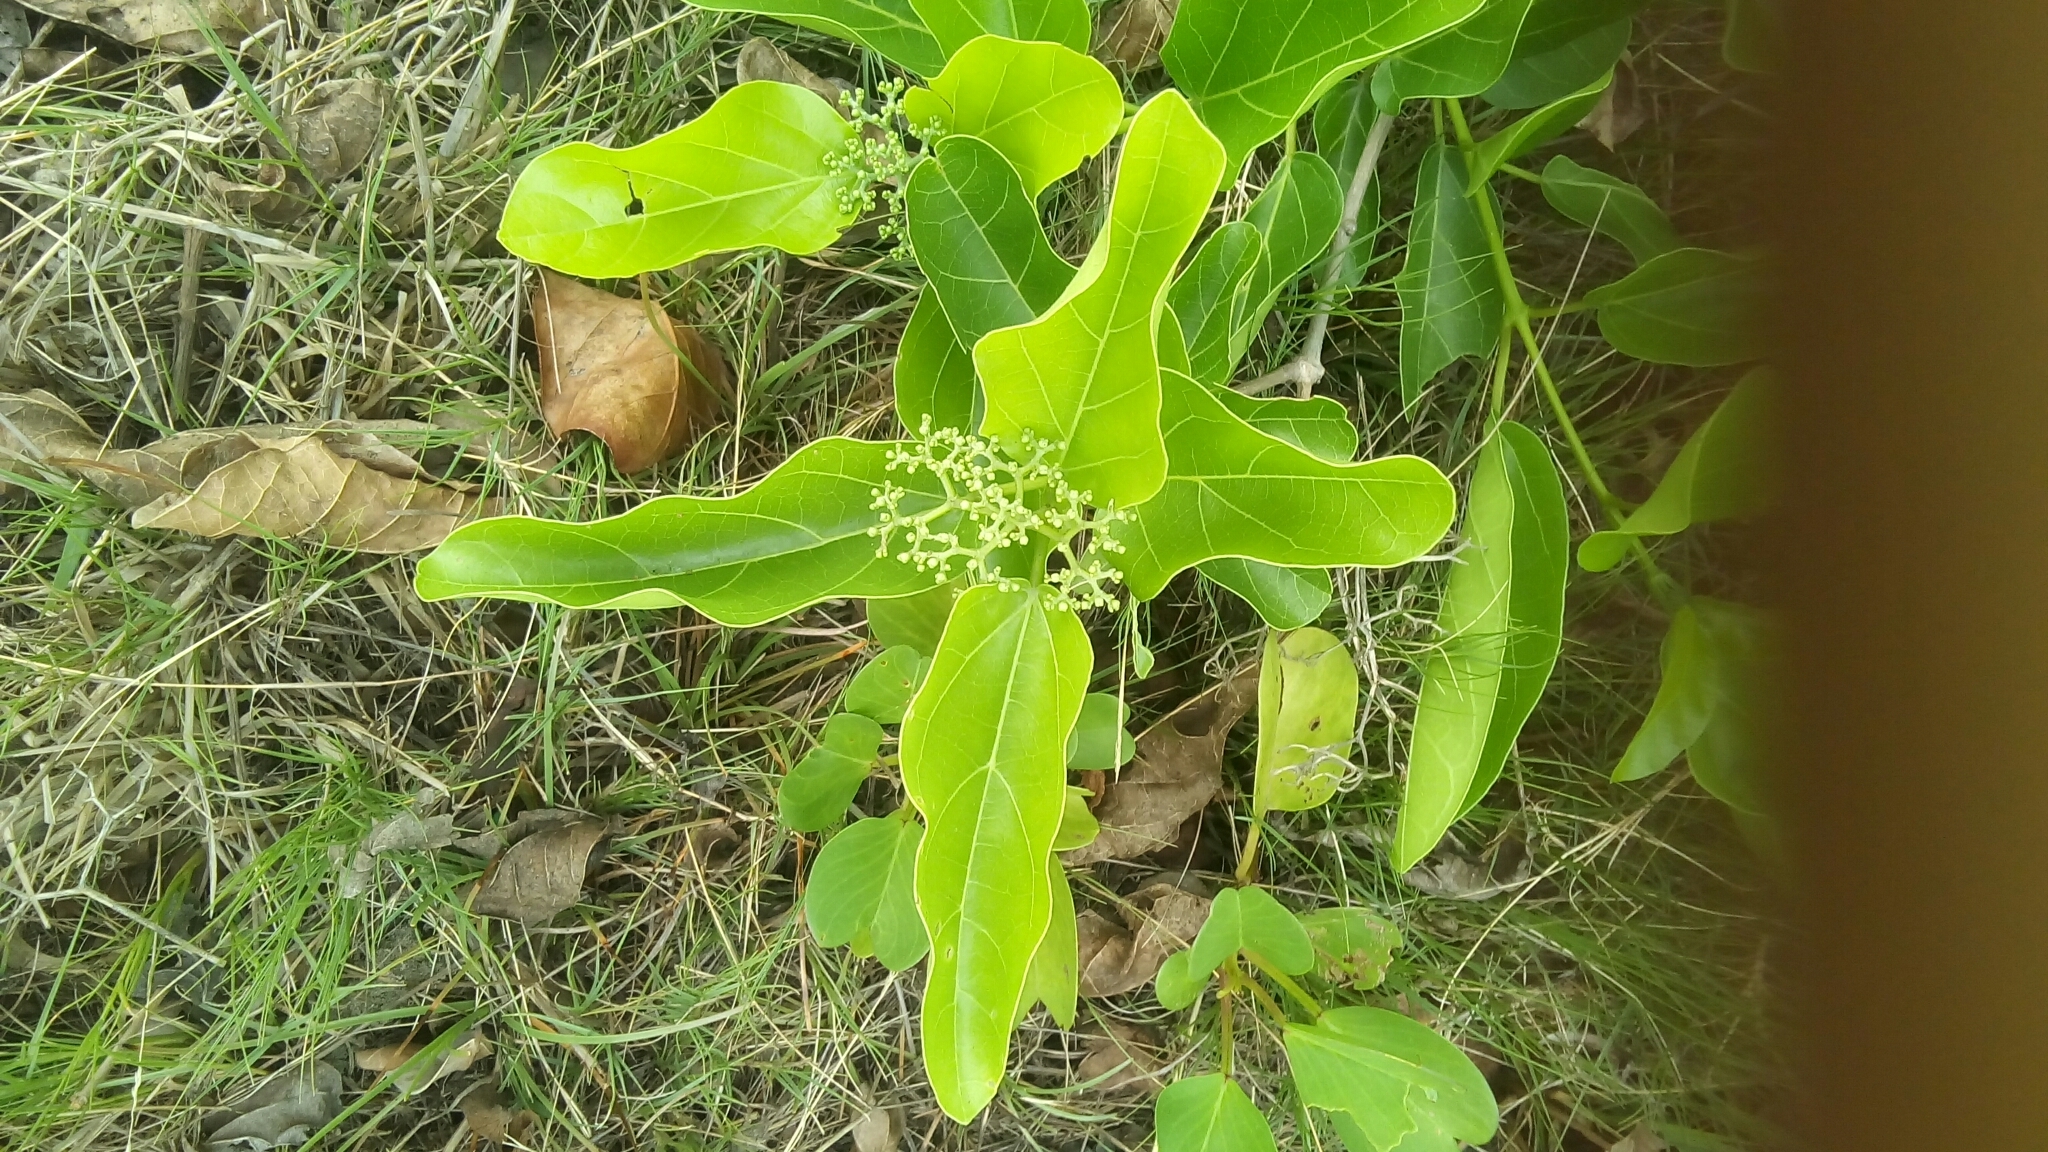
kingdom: Plantae
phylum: Tracheophyta
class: Magnoliopsida
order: Lamiales
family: Lamiaceae
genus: Premna
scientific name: Premna serratifolia
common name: Bastard guelder
